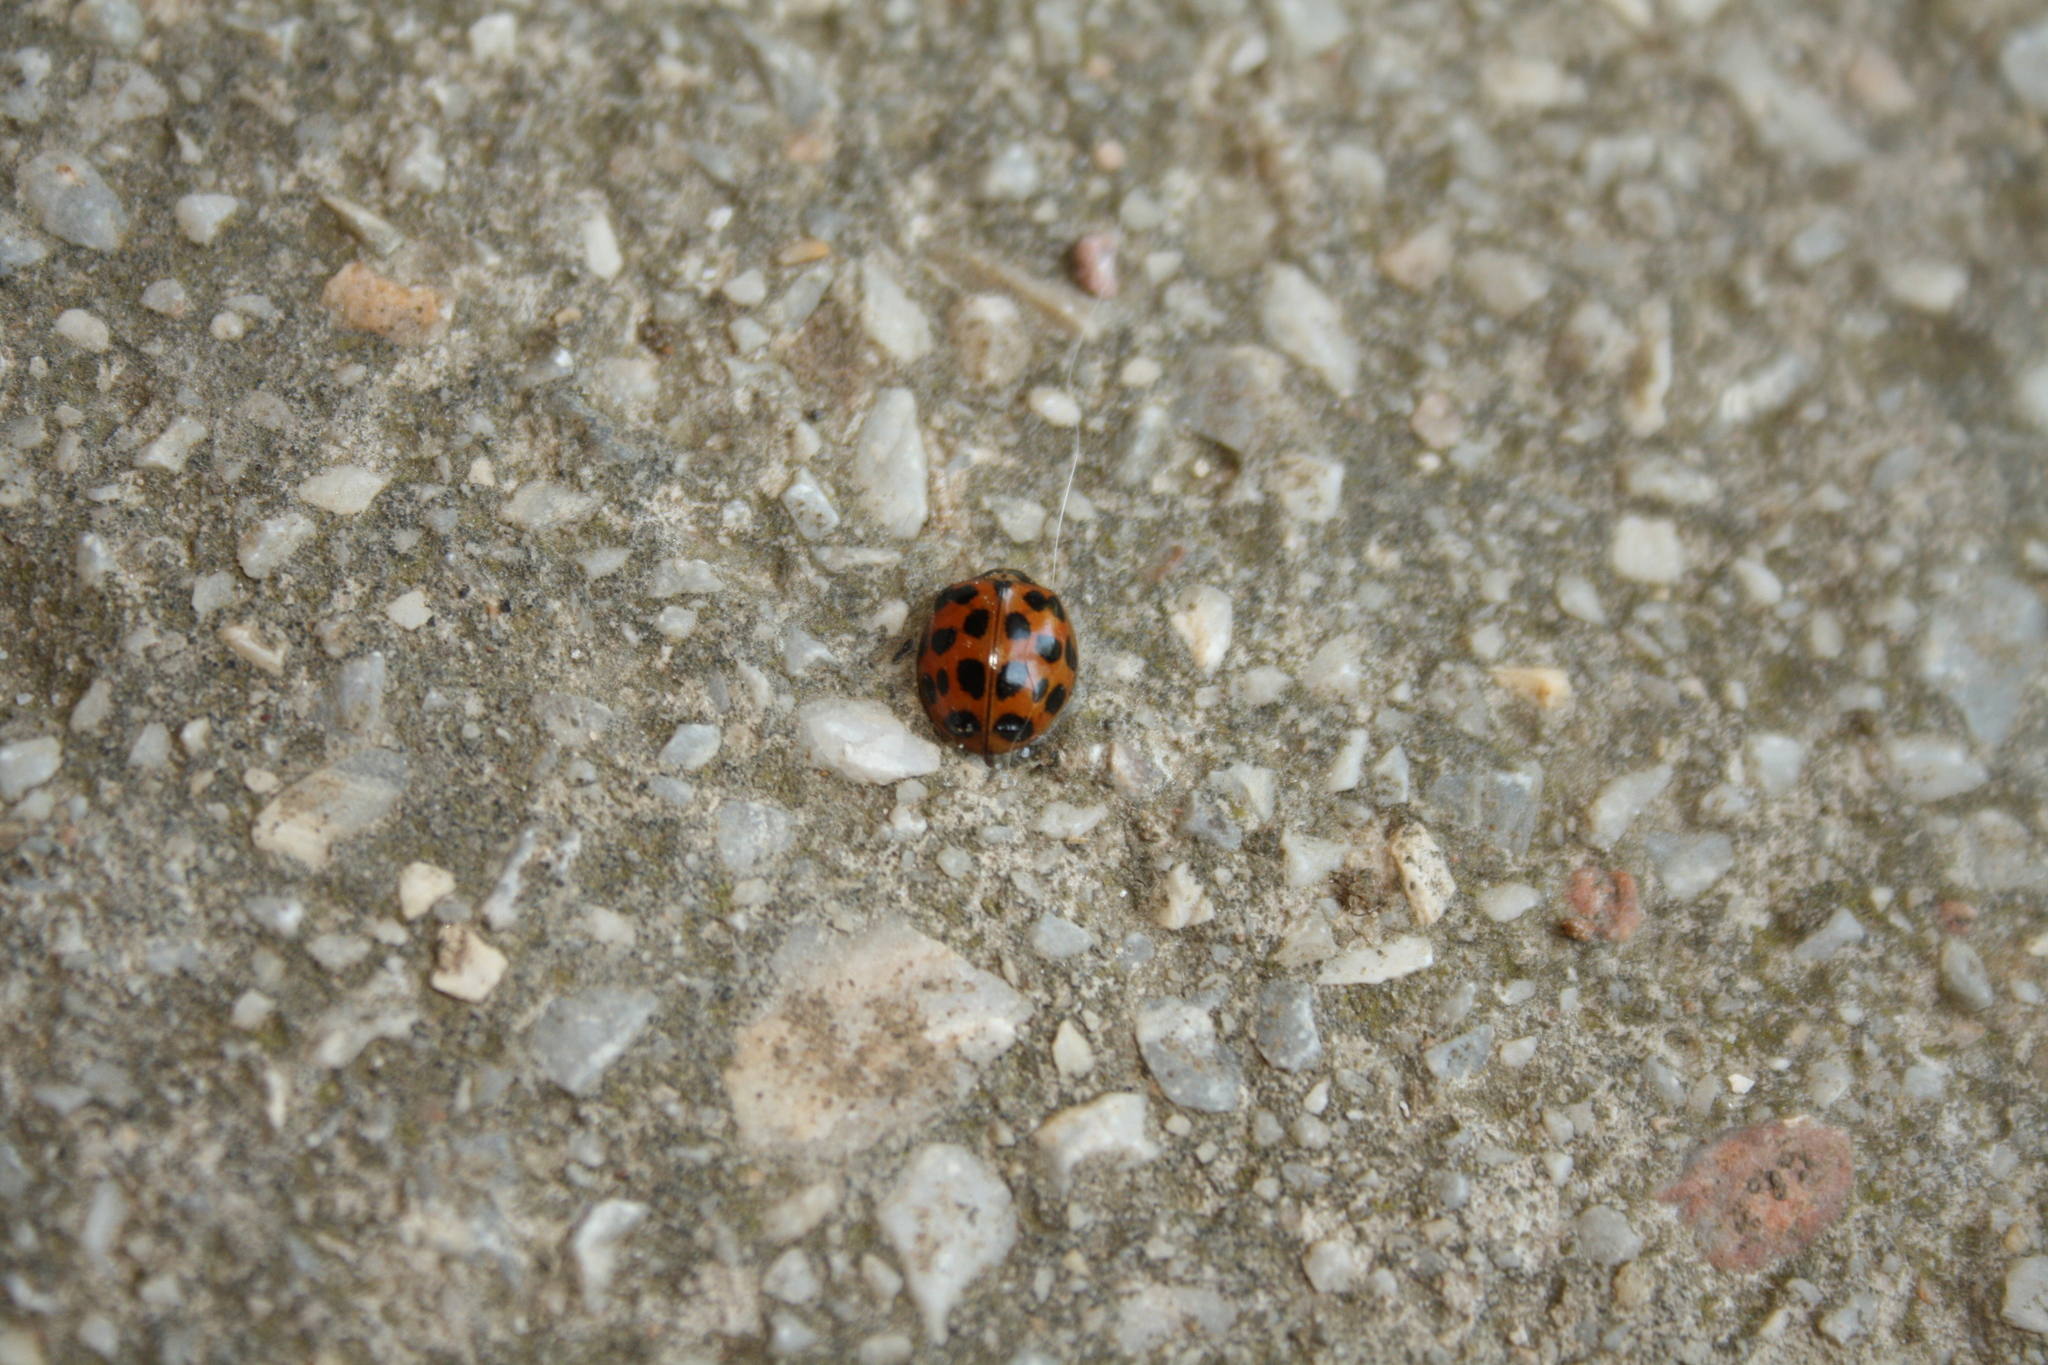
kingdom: Animalia
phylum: Arthropoda
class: Insecta
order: Coleoptera
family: Coccinellidae
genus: Harmonia
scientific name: Harmonia axyridis
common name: Harlequin ladybird
